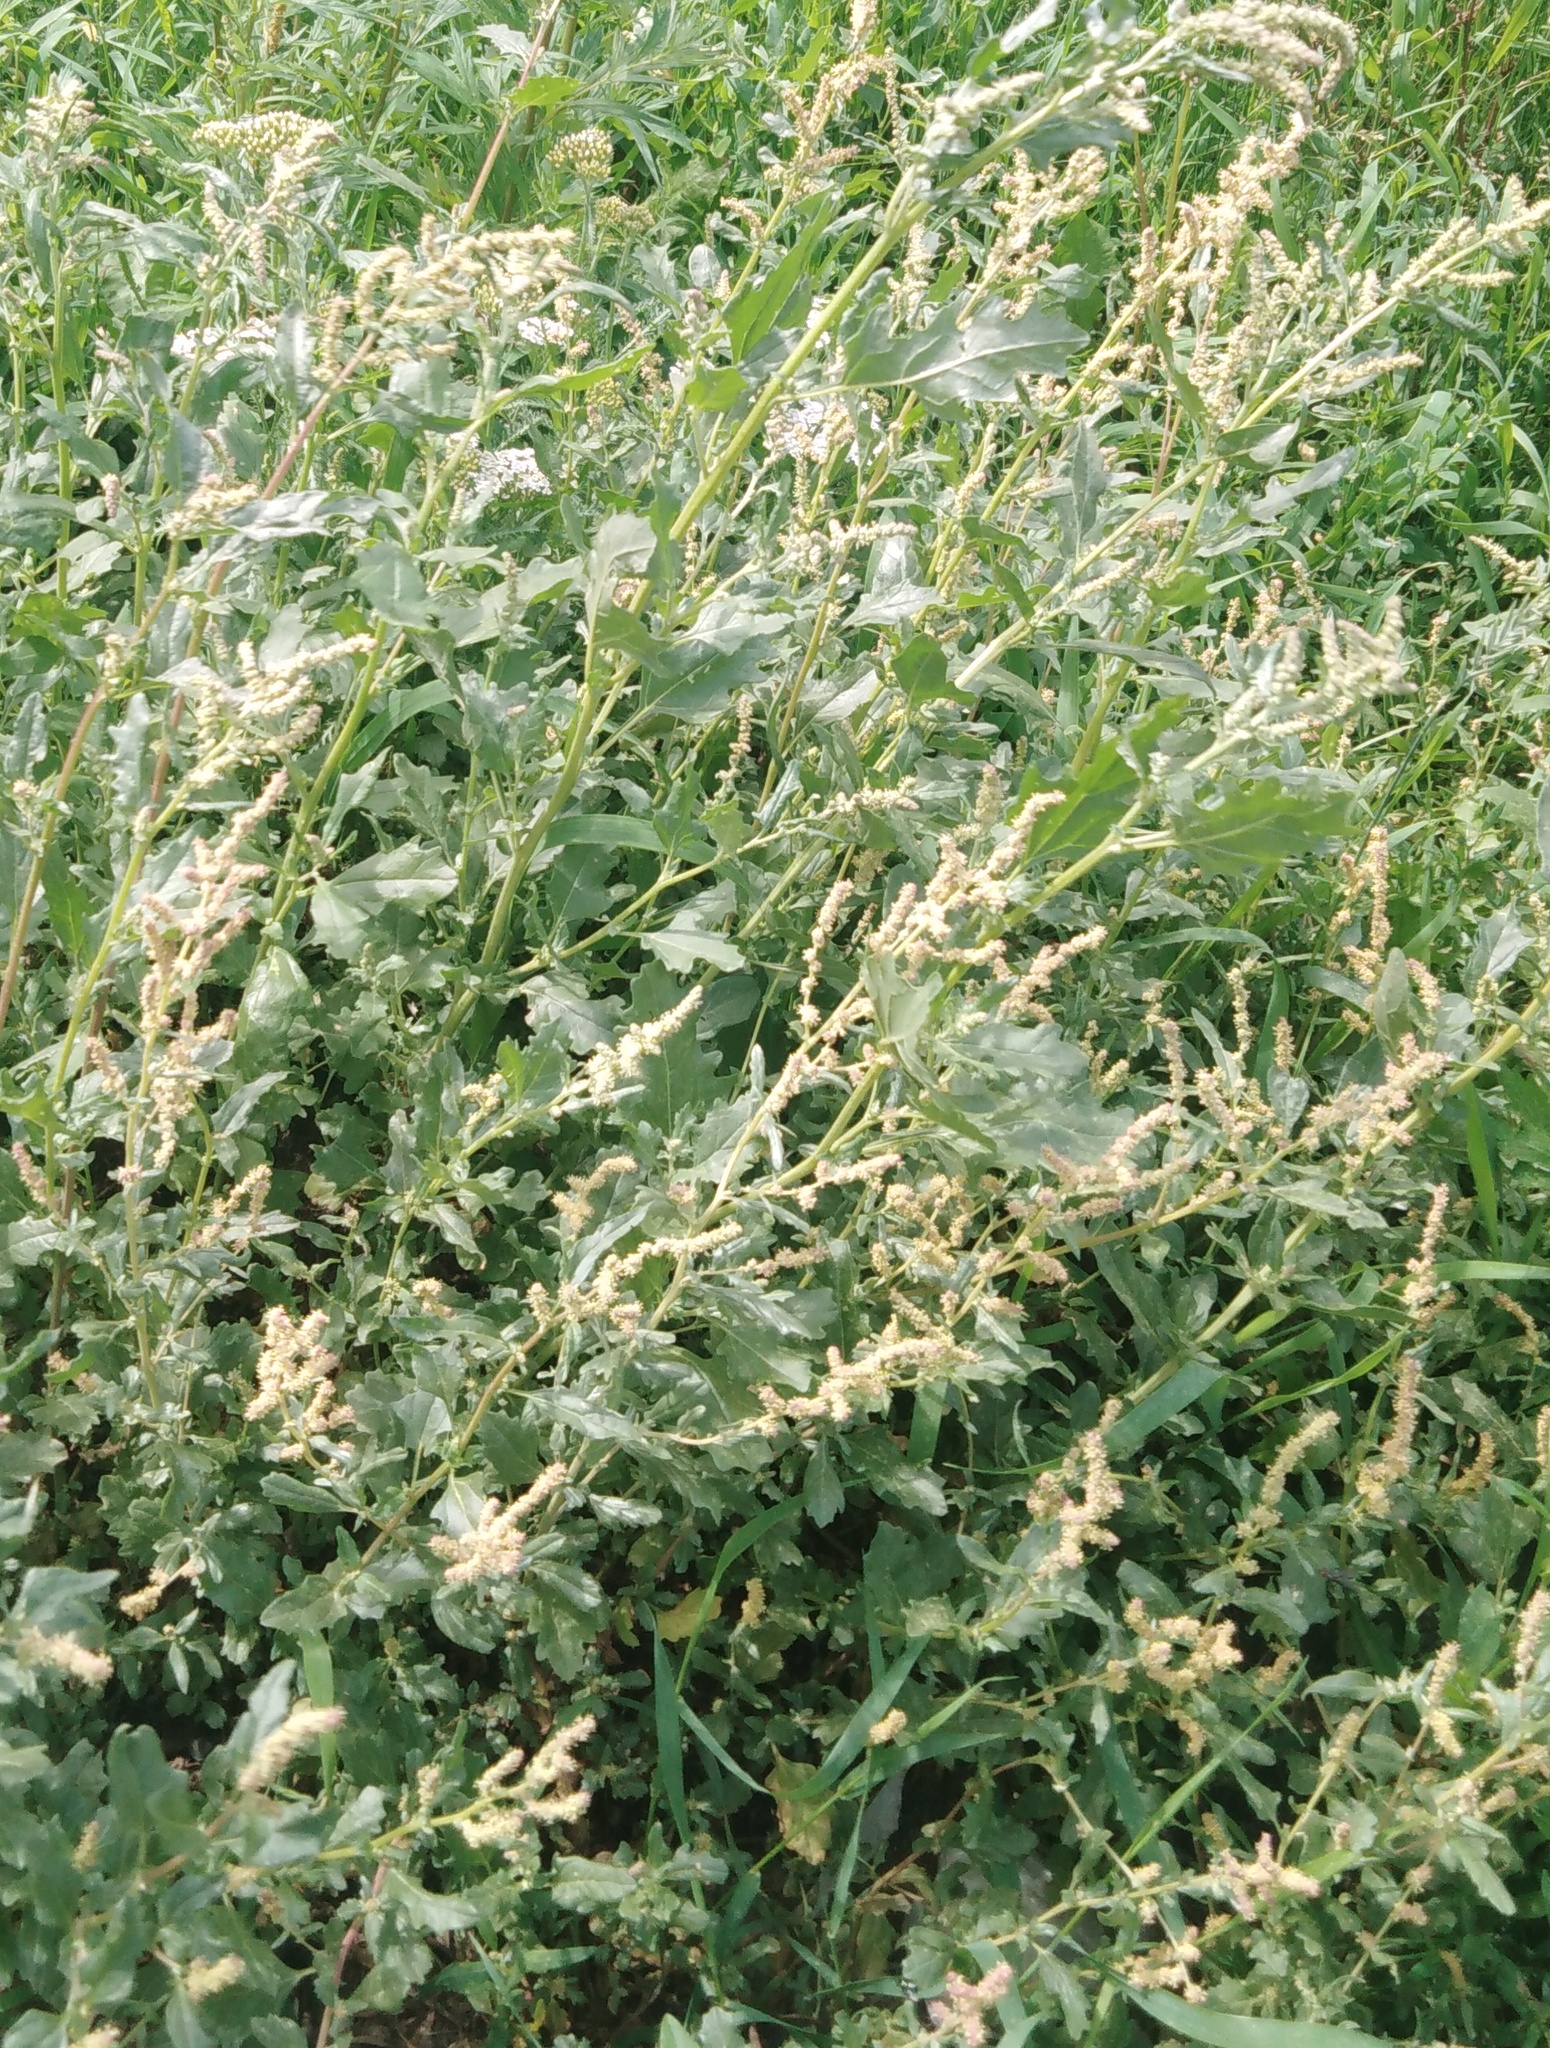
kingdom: Plantae
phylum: Tracheophyta
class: Magnoliopsida
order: Caryophyllales
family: Amaranthaceae
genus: Atriplex
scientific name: Atriplex tatarica
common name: Tatarian orache
